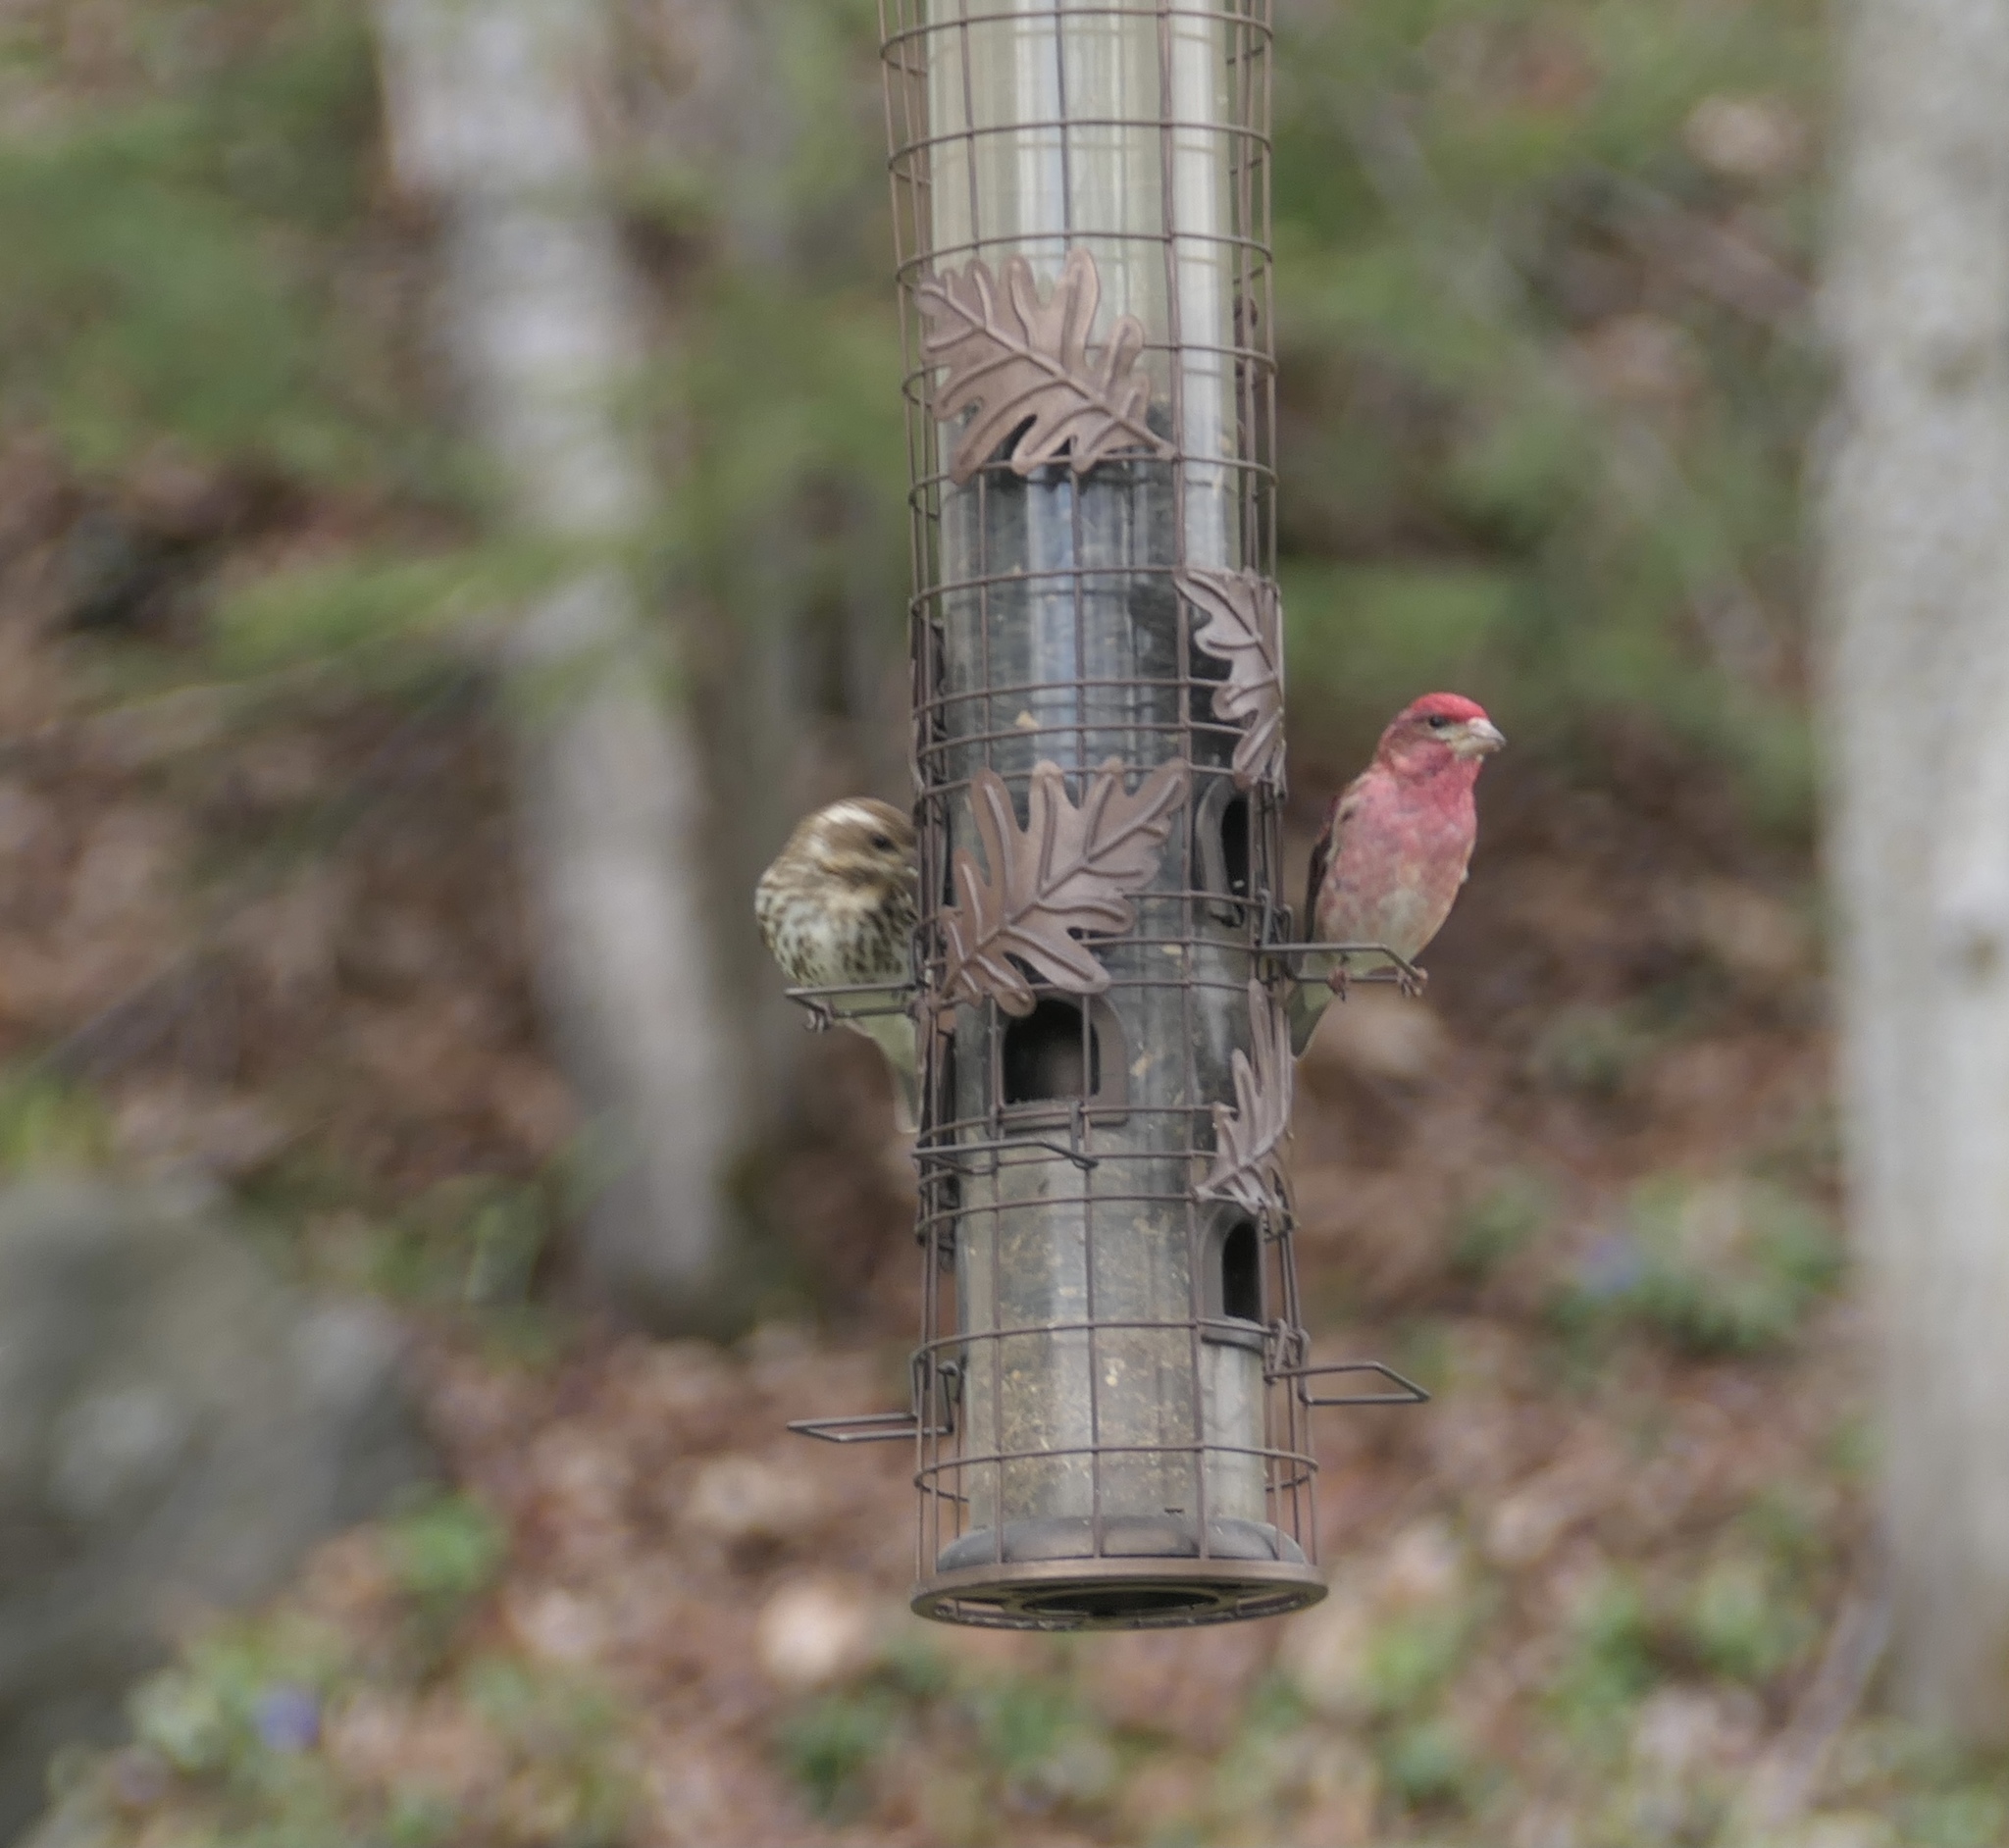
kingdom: Animalia
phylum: Chordata
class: Aves
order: Passeriformes
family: Fringillidae
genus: Haemorhous
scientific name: Haemorhous purpureus
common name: Purple finch
